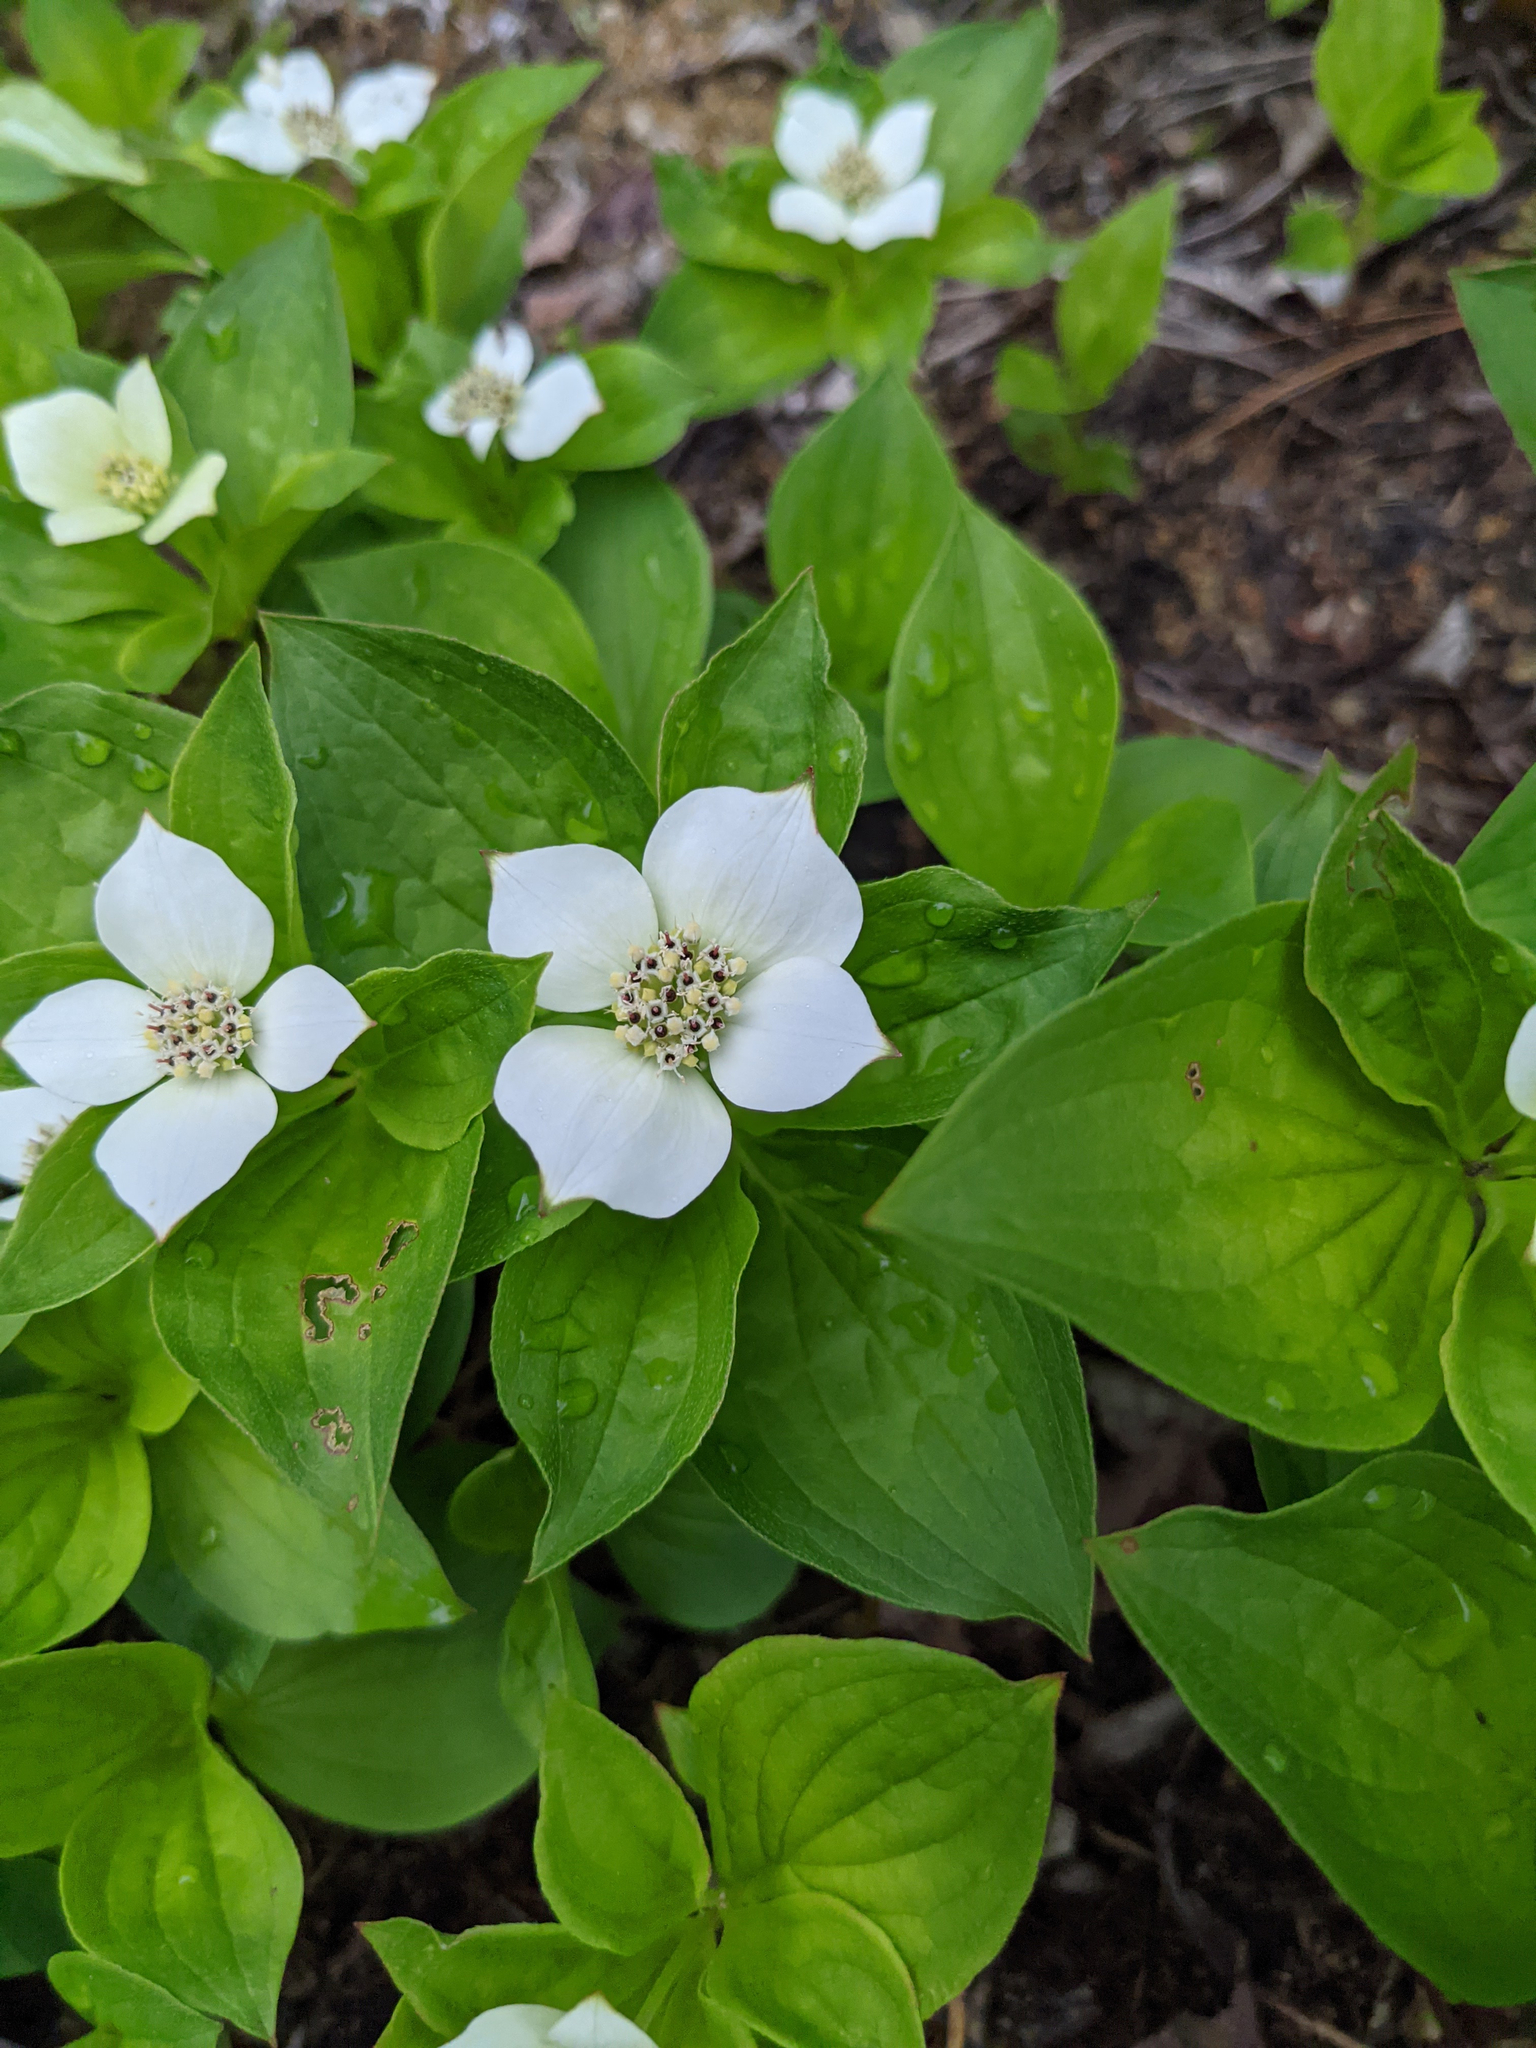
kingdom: Plantae
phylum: Tracheophyta
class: Magnoliopsida
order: Cornales
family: Cornaceae
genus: Cornus
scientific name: Cornus canadensis
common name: Creeping dogwood
